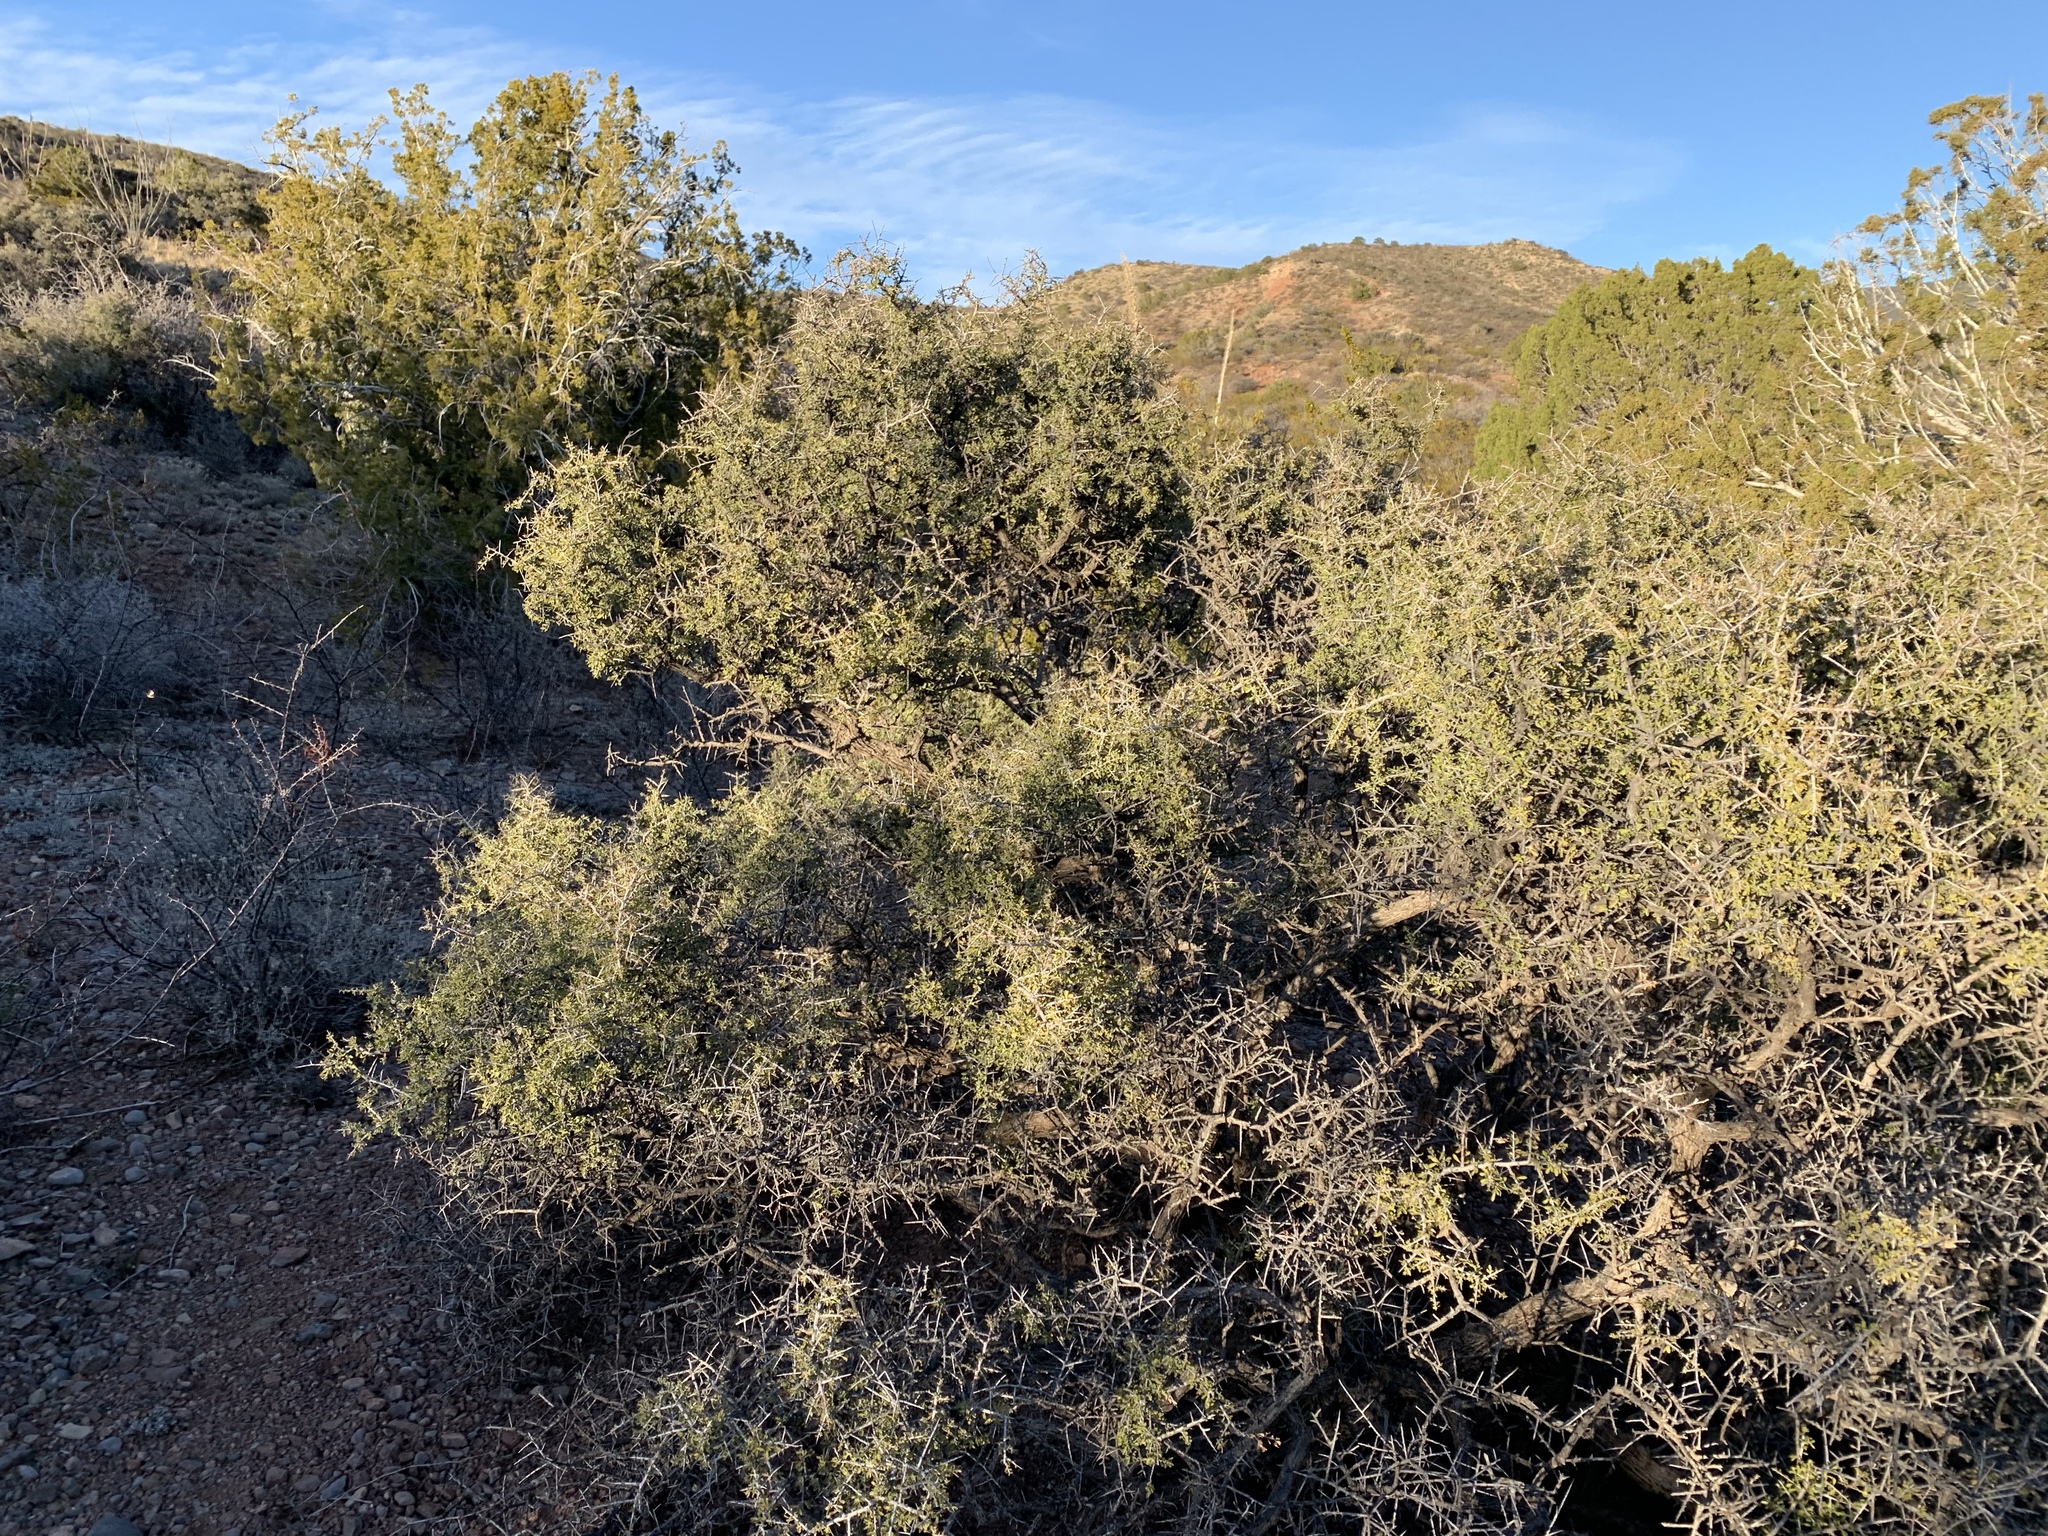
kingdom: Plantae
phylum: Tracheophyta
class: Magnoliopsida
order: Rosales
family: Rhamnaceae
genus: Condalia
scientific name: Condalia warnockii
